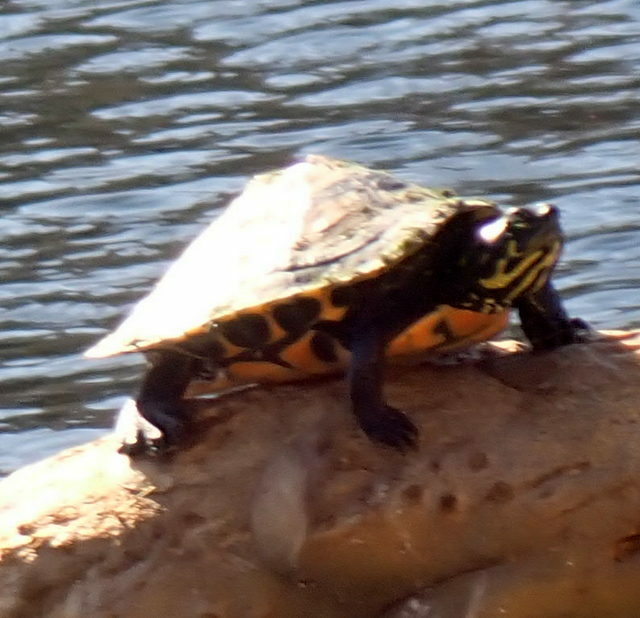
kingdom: Animalia
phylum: Chordata
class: Testudines
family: Emydidae
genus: Pseudemys
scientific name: Pseudemys concinna
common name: Eastern river cooter
